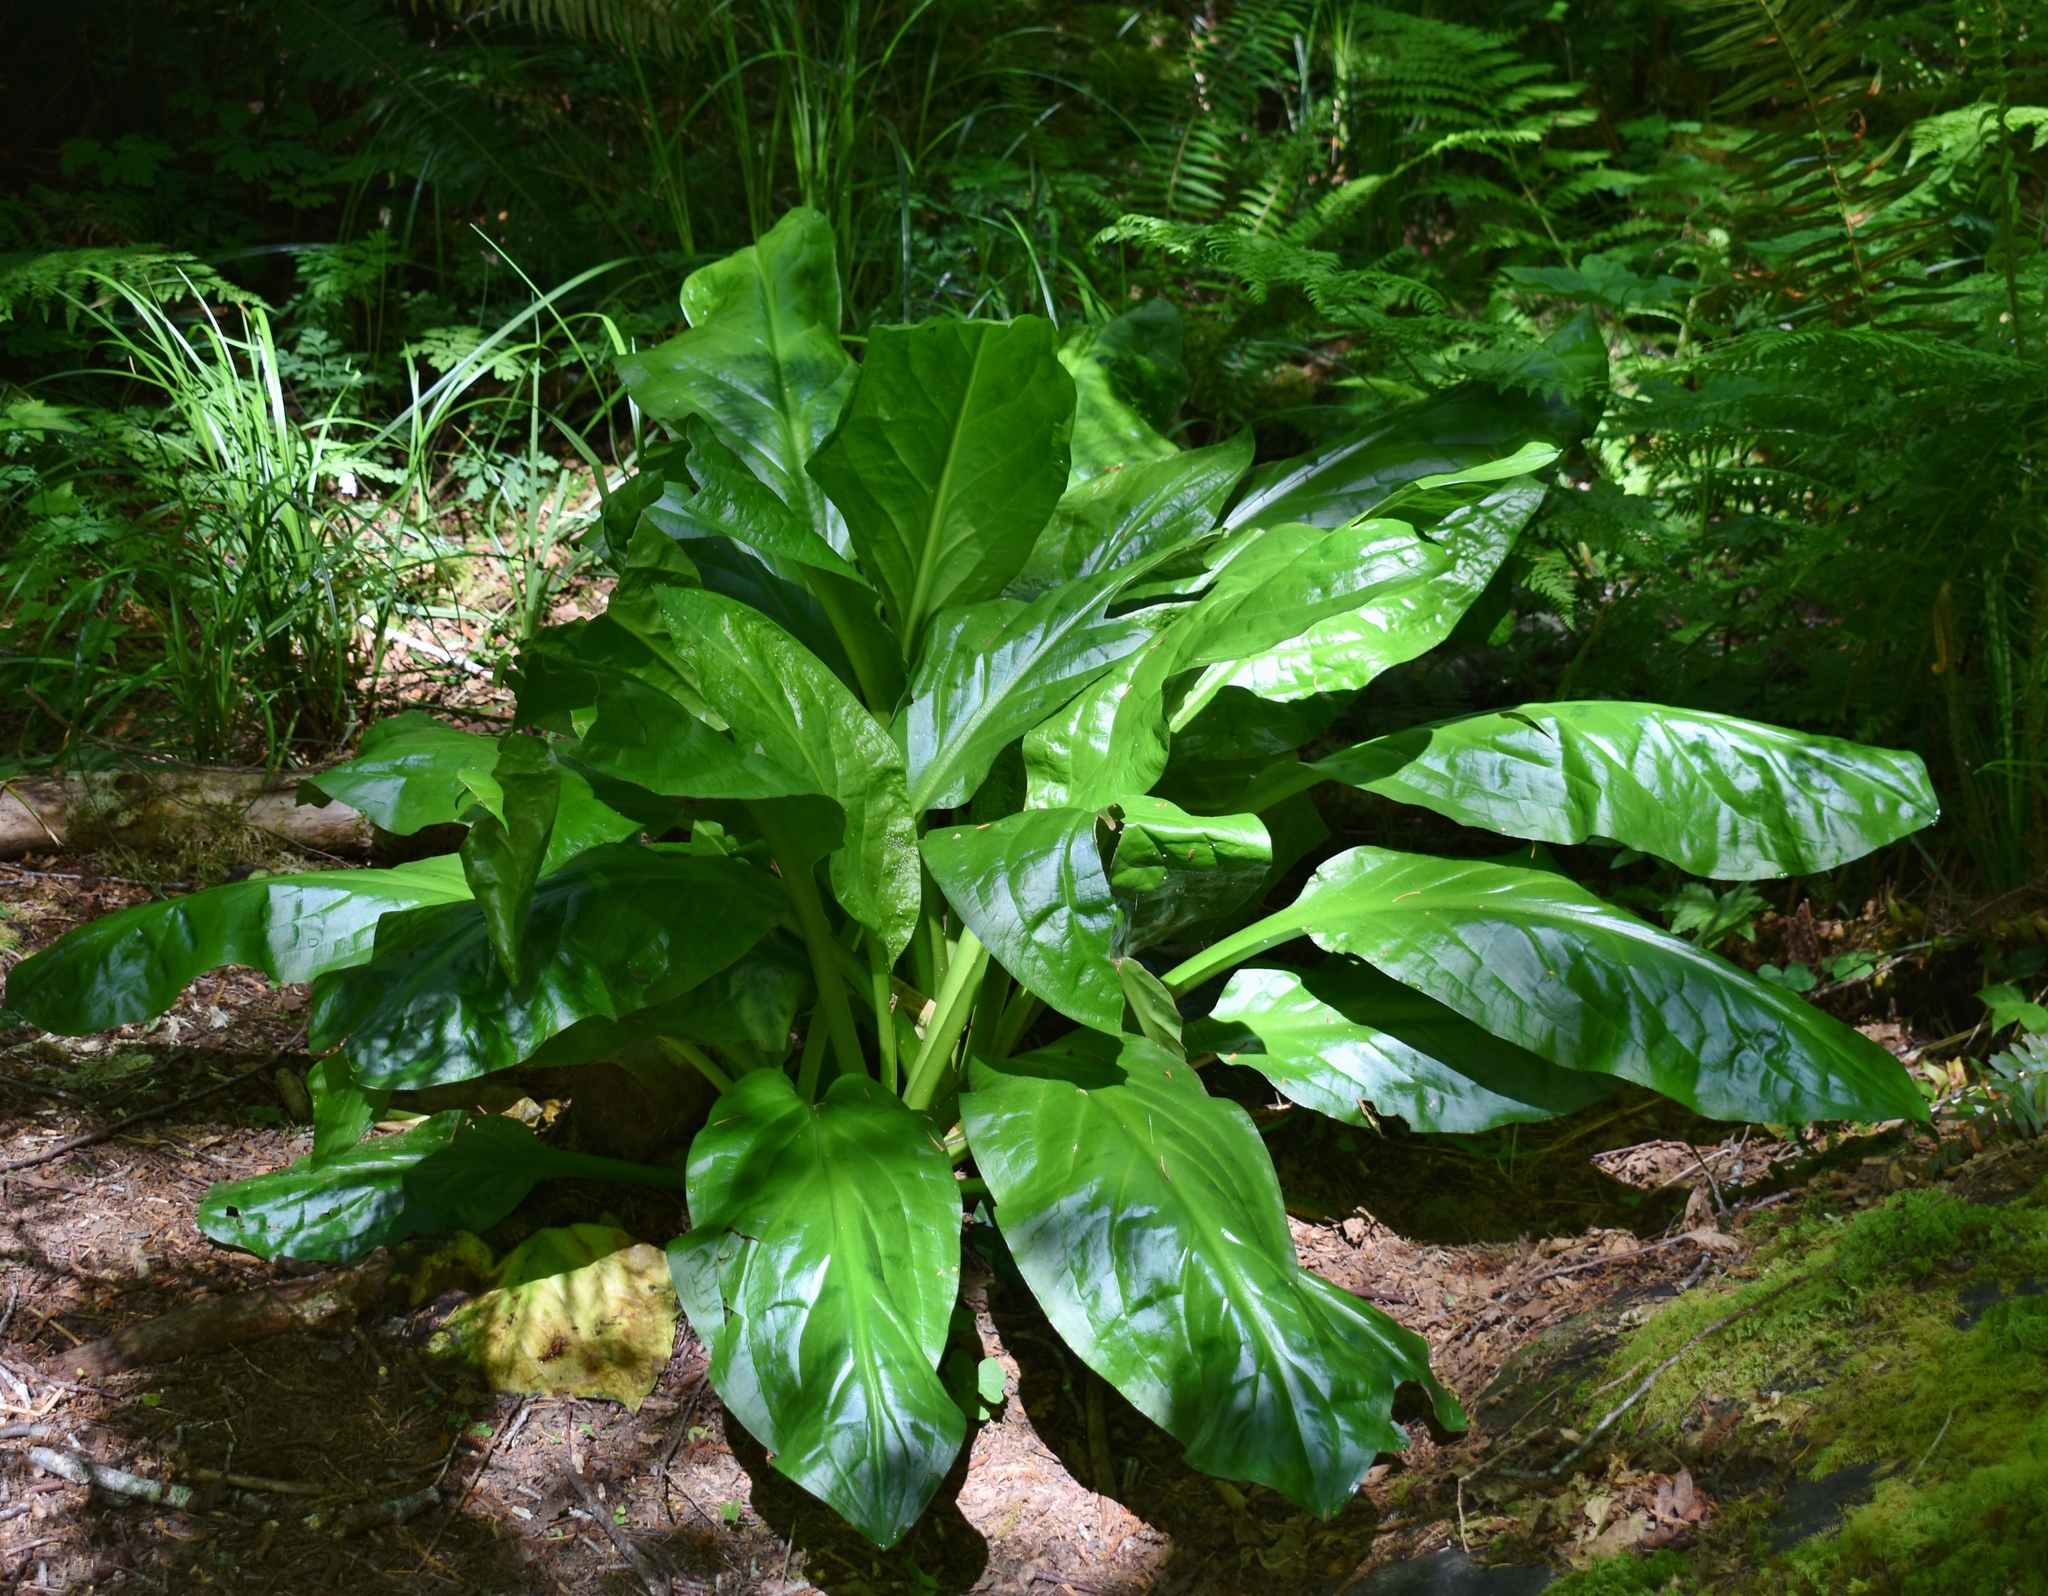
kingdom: Plantae
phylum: Tracheophyta
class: Liliopsida
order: Alismatales
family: Araceae
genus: Lysichiton
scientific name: Lysichiton americanus
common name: American skunk cabbage
